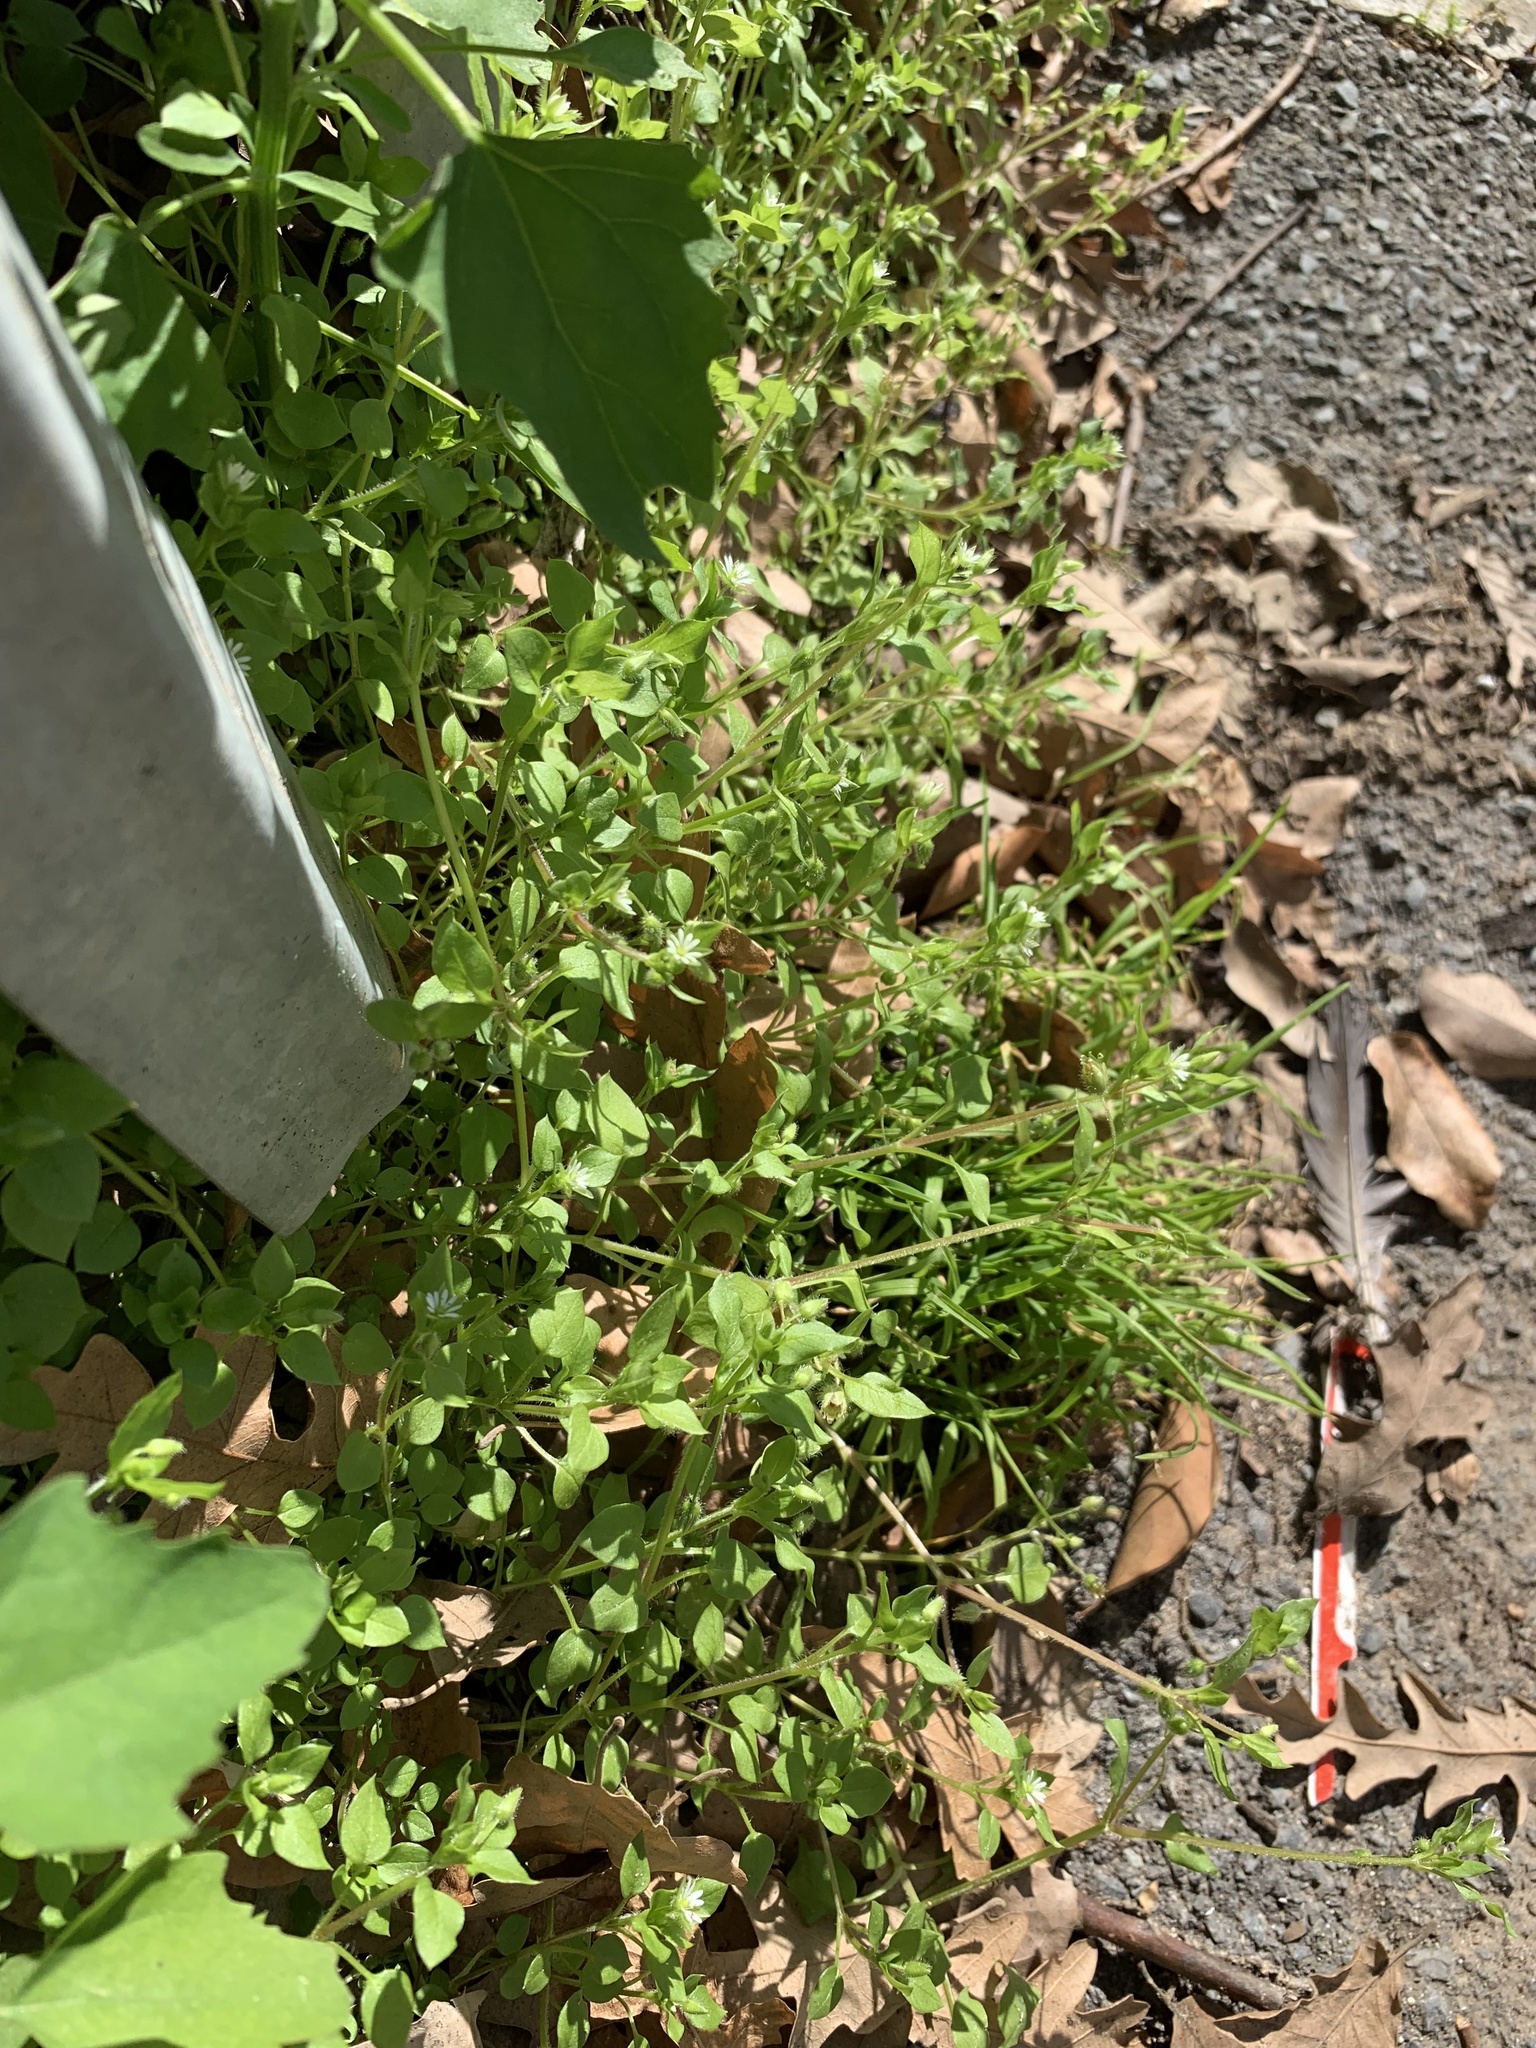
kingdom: Plantae
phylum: Tracheophyta
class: Magnoliopsida
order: Caryophyllales
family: Caryophyllaceae
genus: Stellaria
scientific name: Stellaria media
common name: Common chickweed
